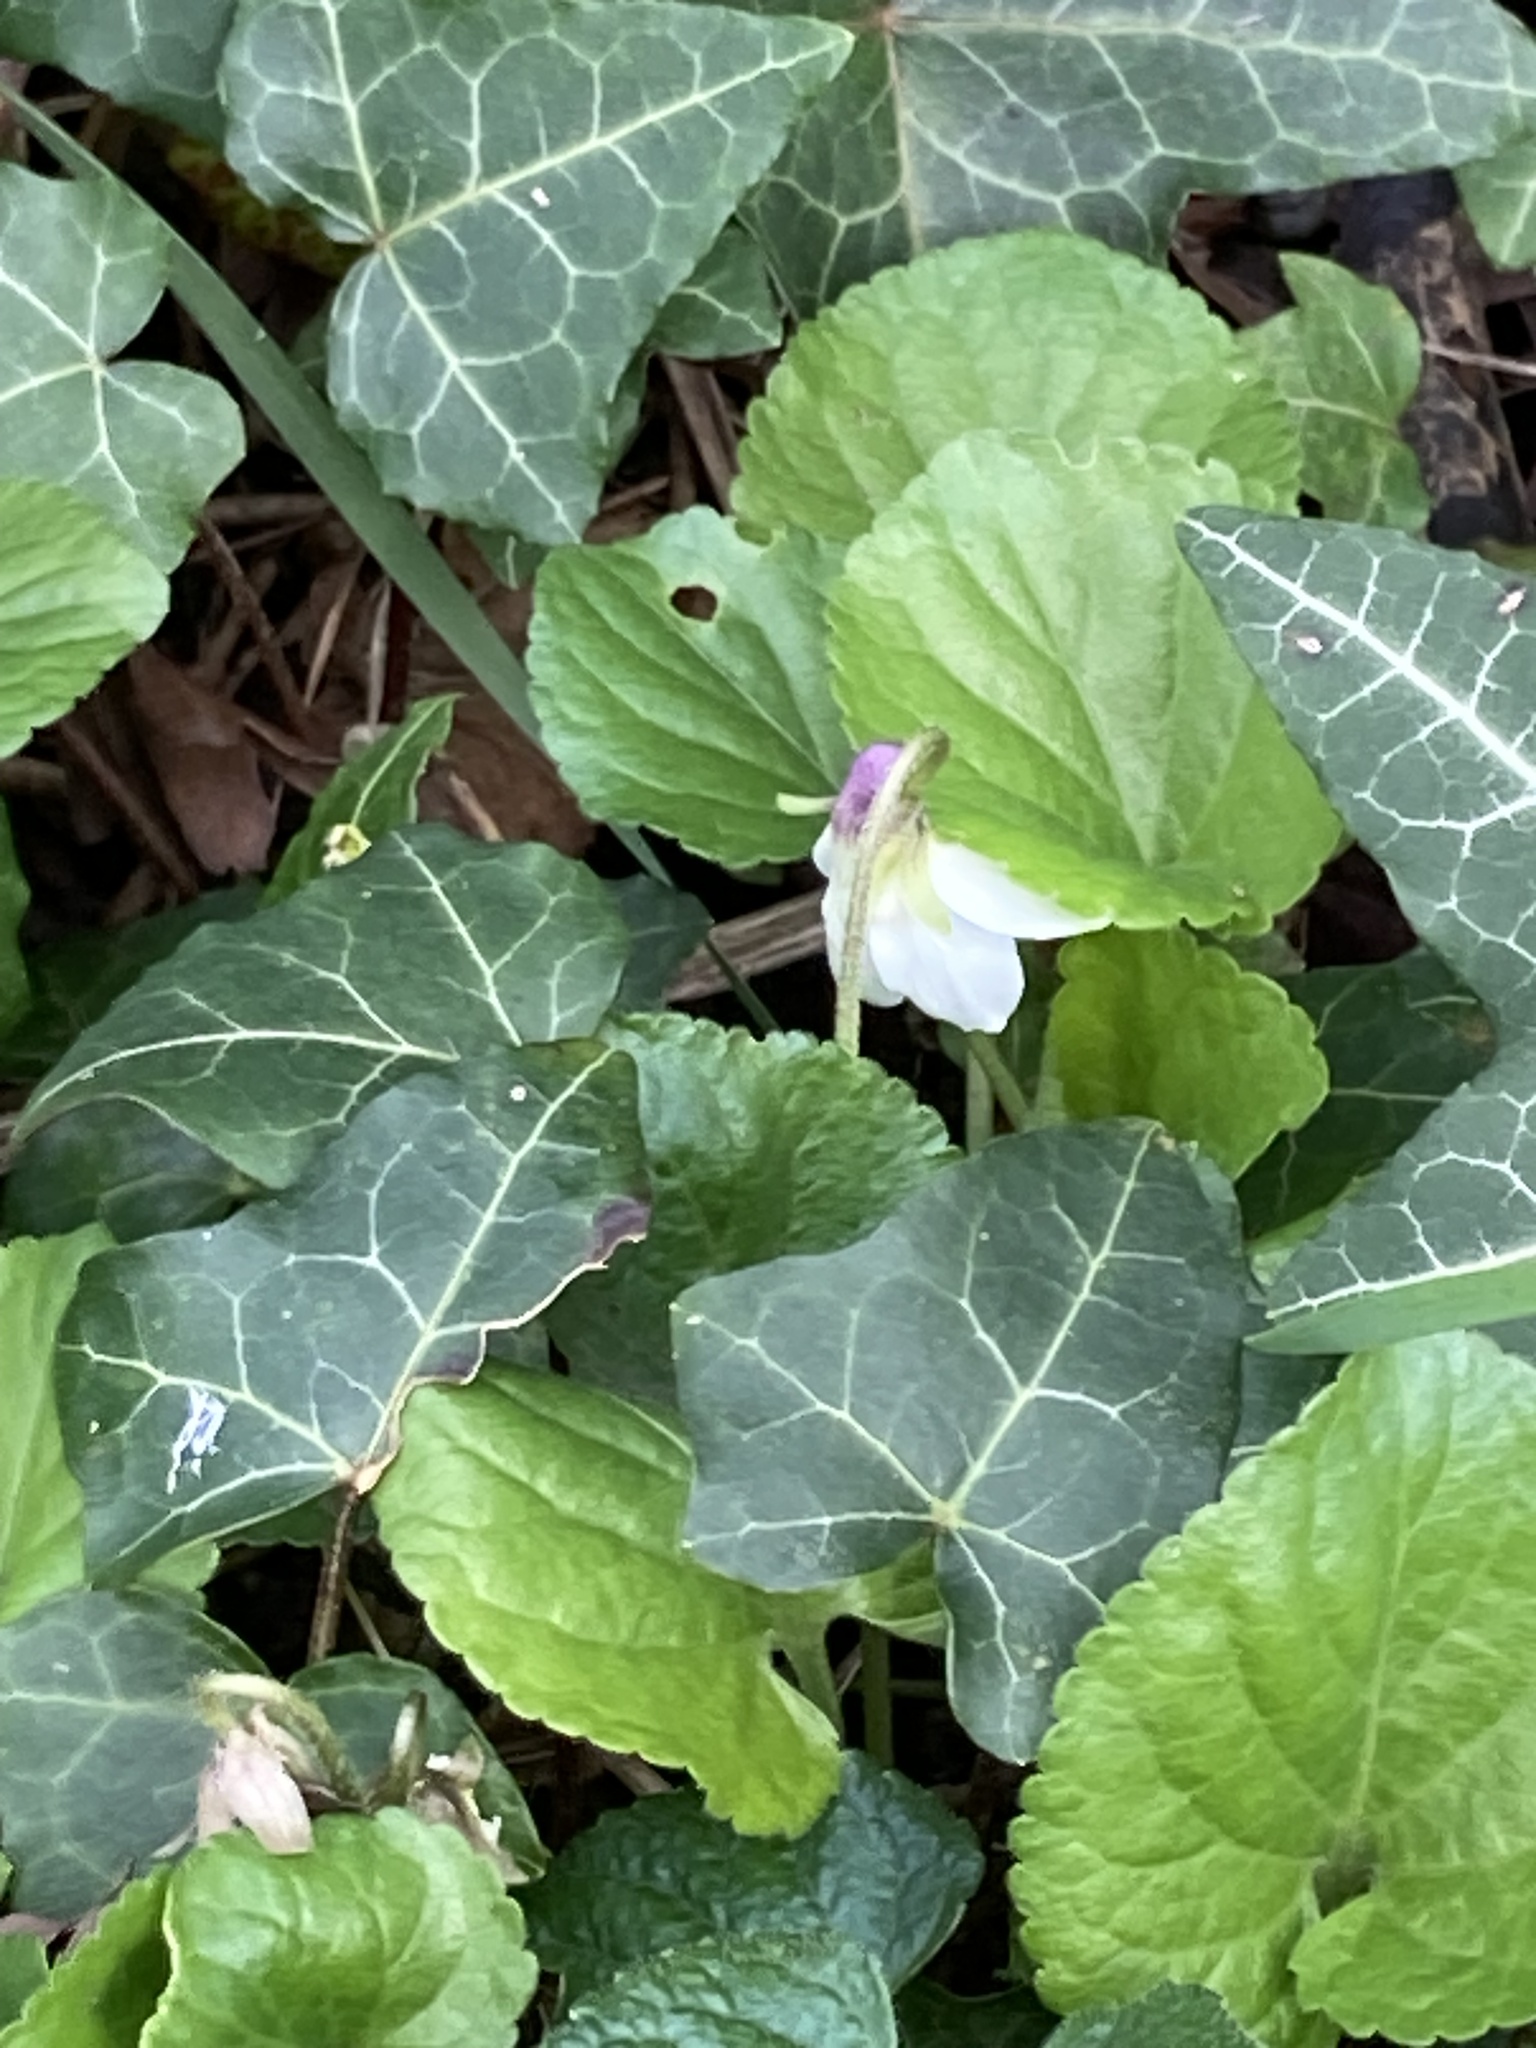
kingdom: Plantae
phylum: Tracheophyta
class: Magnoliopsida
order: Malpighiales
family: Violaceae
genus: Viola
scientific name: Viola odorata
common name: Sweet violet
